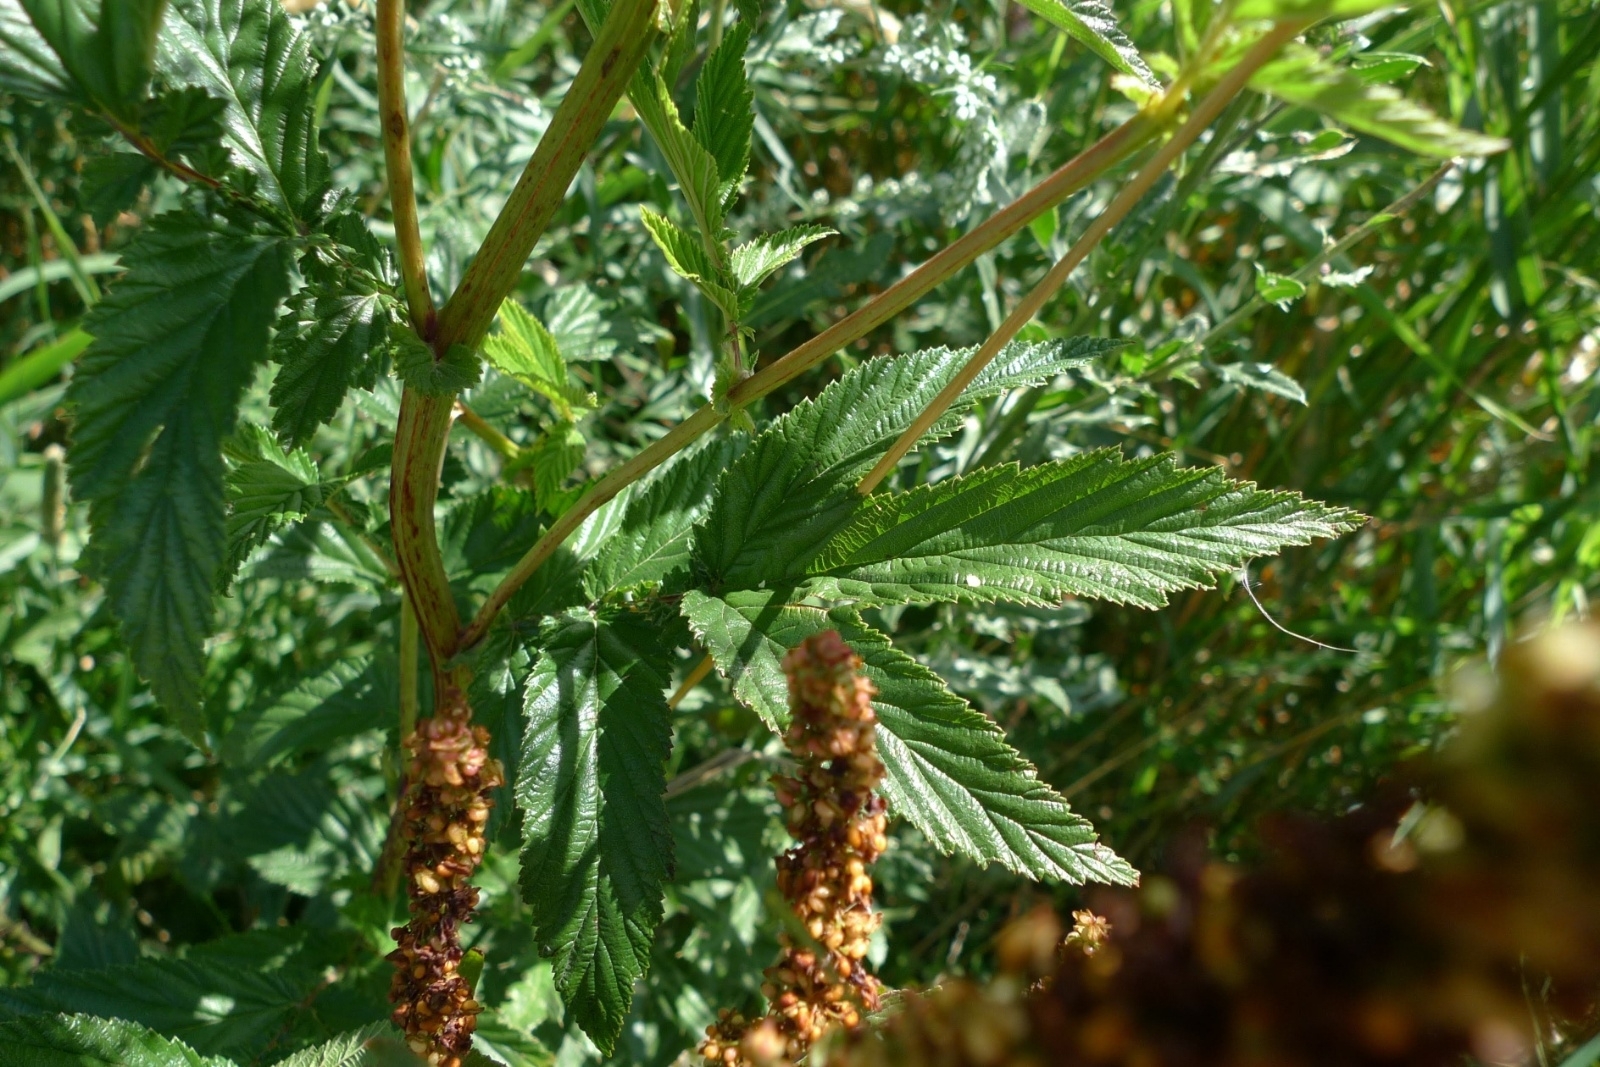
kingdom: Plantae
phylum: Tracheophyta
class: Magnoliopsida
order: Rosales
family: Rosaceae
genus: Filipendula
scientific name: Filipendula ulmaria
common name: Meadowsweet
